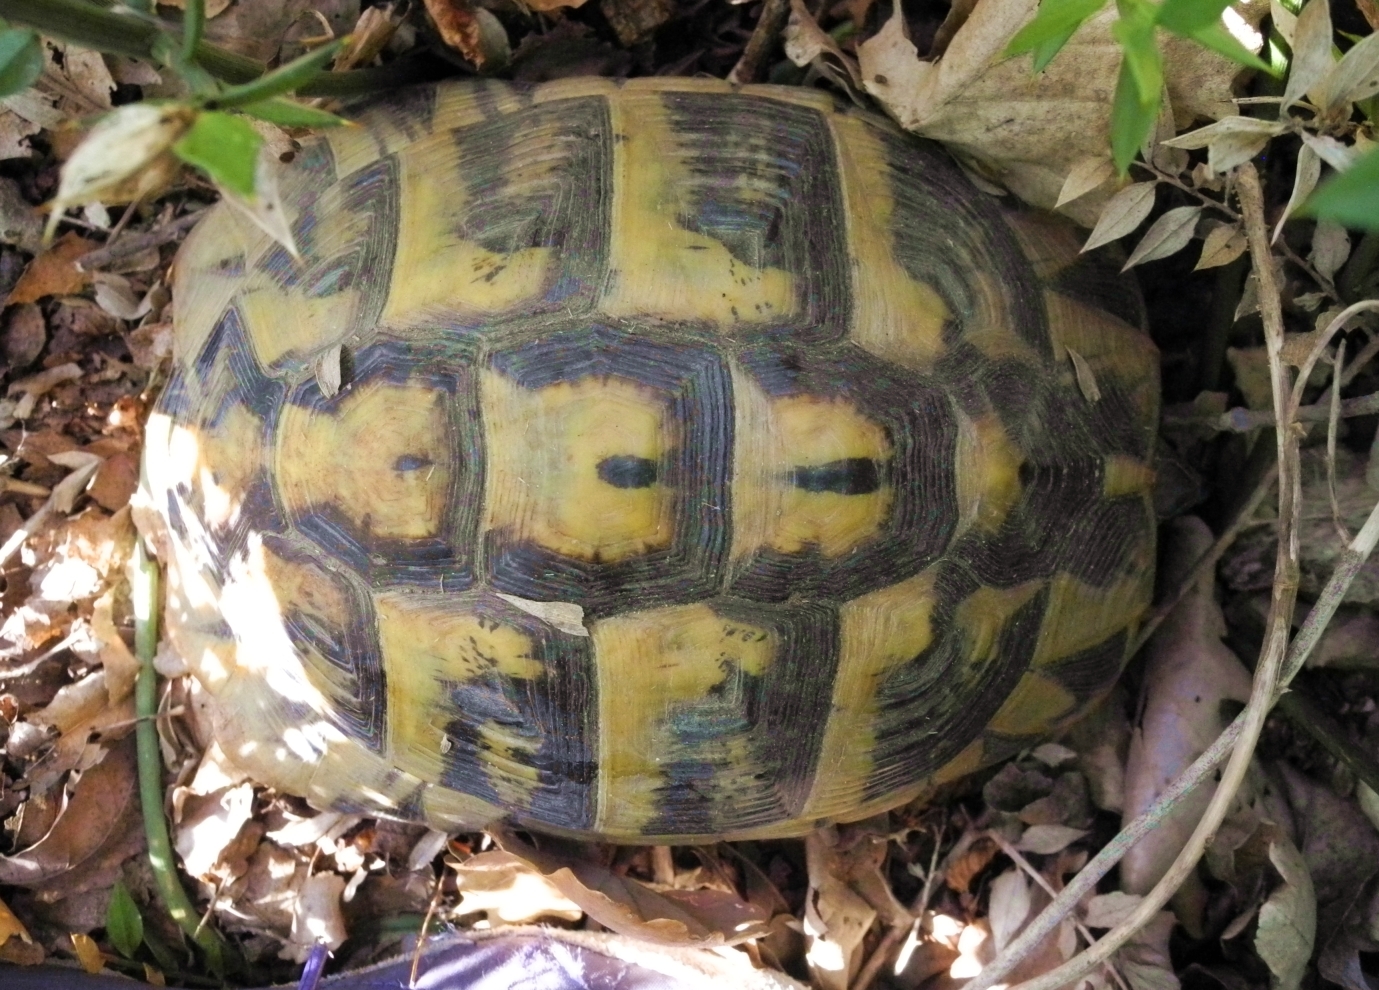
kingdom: Animalia
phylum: Chordata
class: Testudines
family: Testudinidae
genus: Testudo
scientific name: Testudo hermanni
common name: Hermann's tortoise
